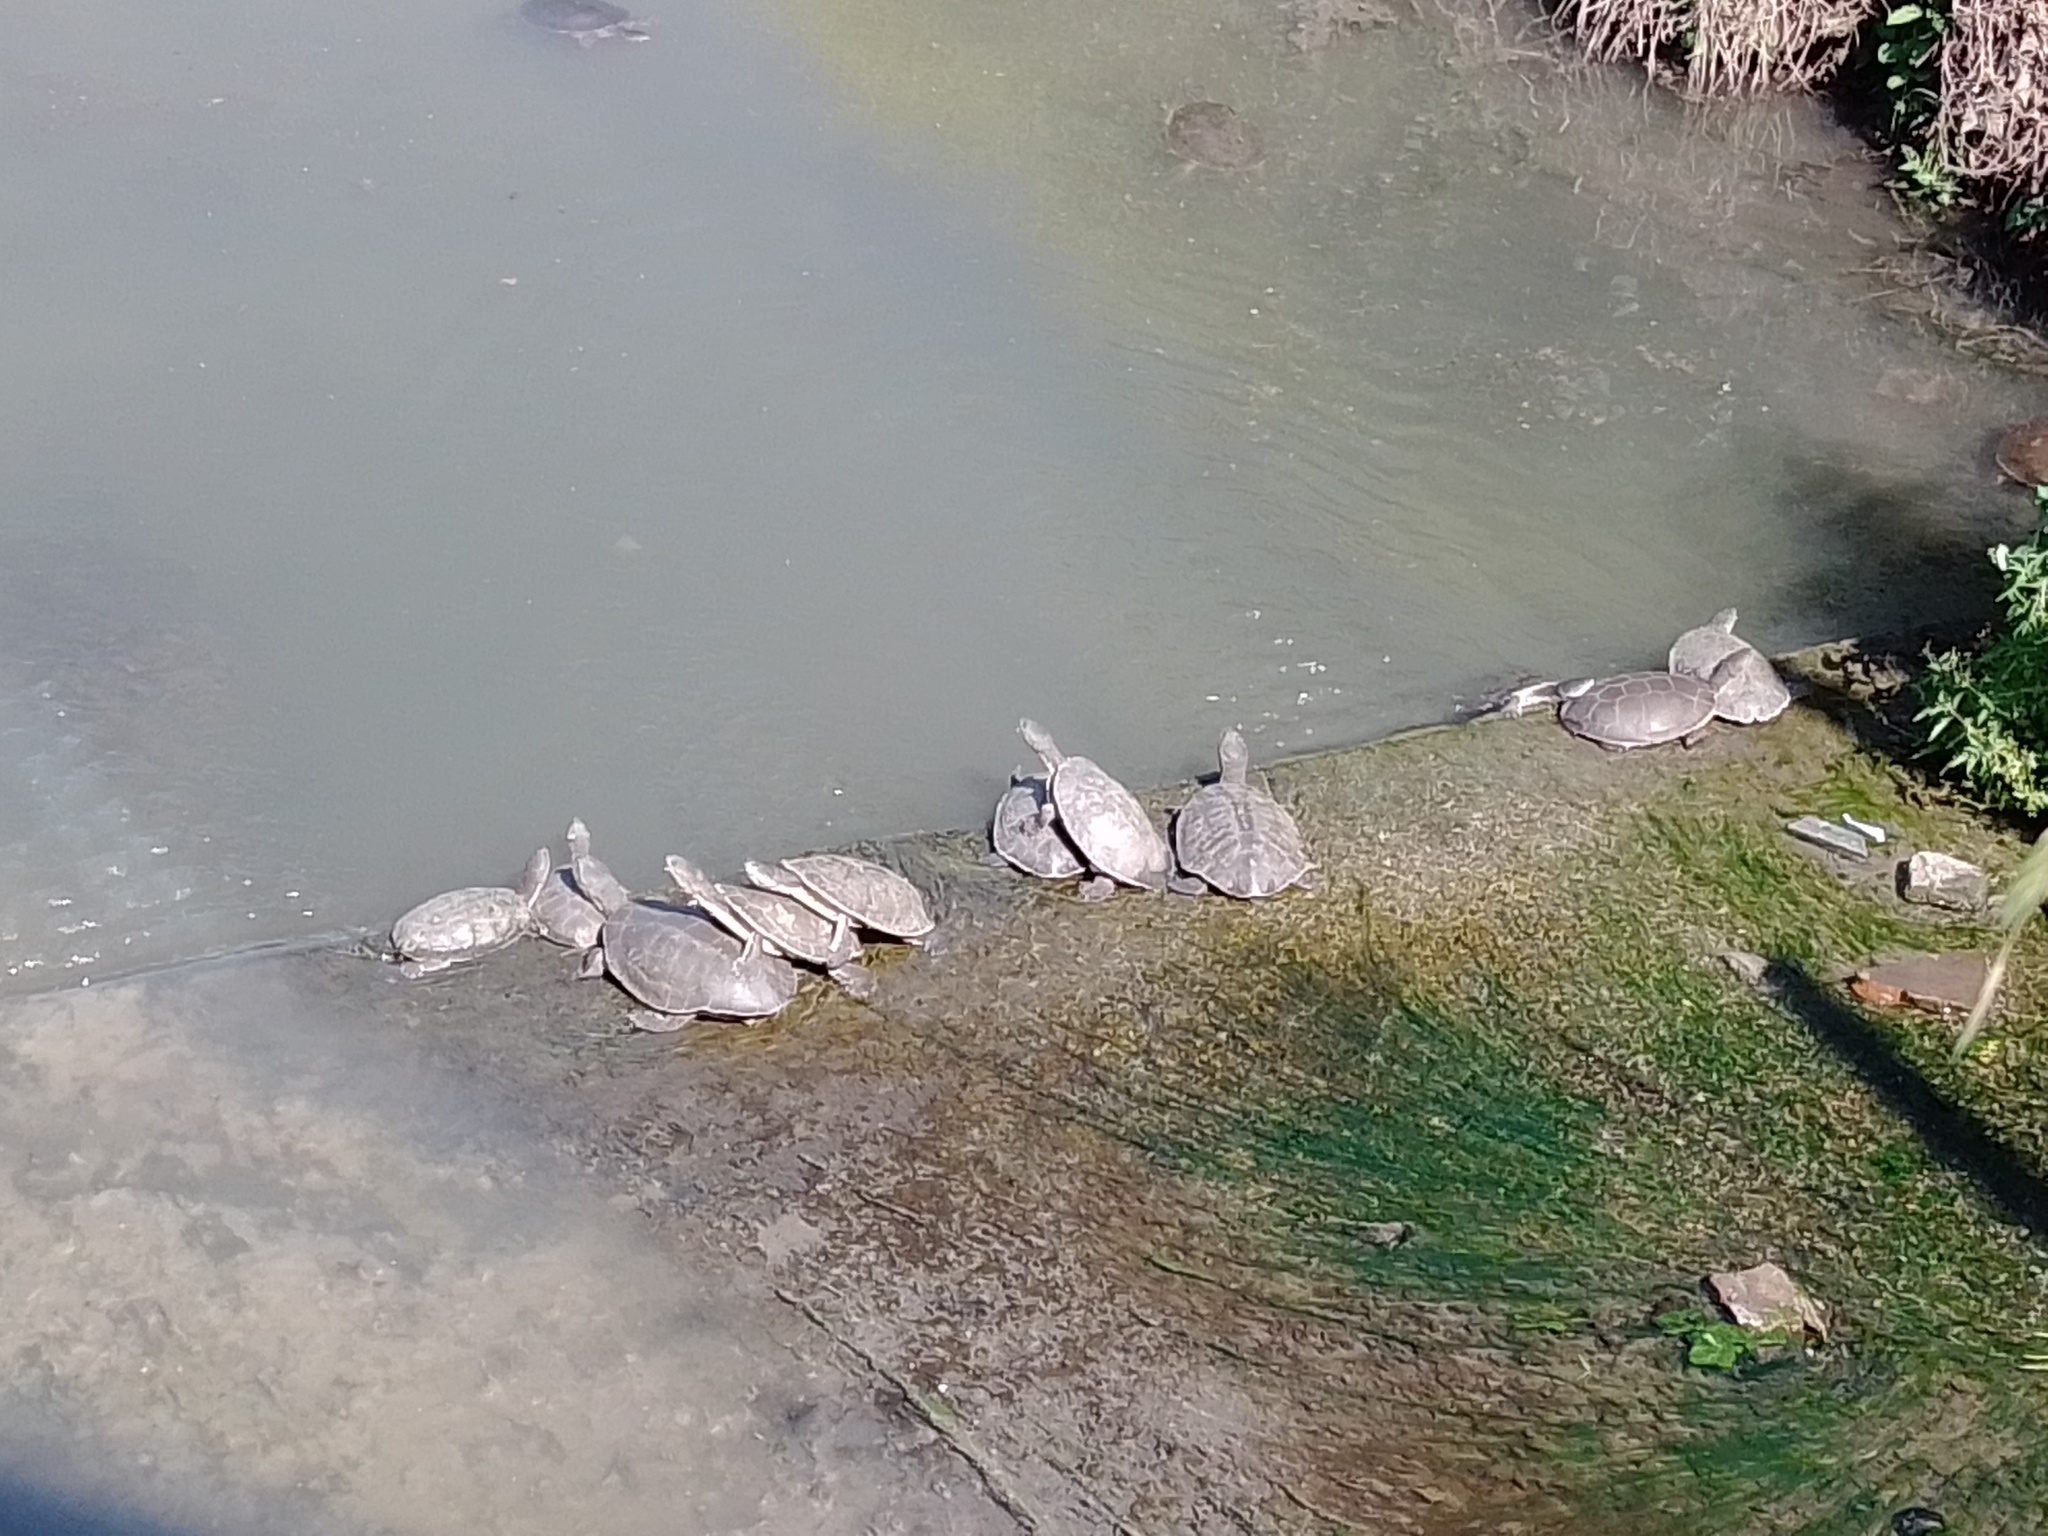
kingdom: Animalia
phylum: Chordata
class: Testudines
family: Chelidae
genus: Phrynops
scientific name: Phrynops hilarii
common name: Side-necked turtle of saint hillaire
